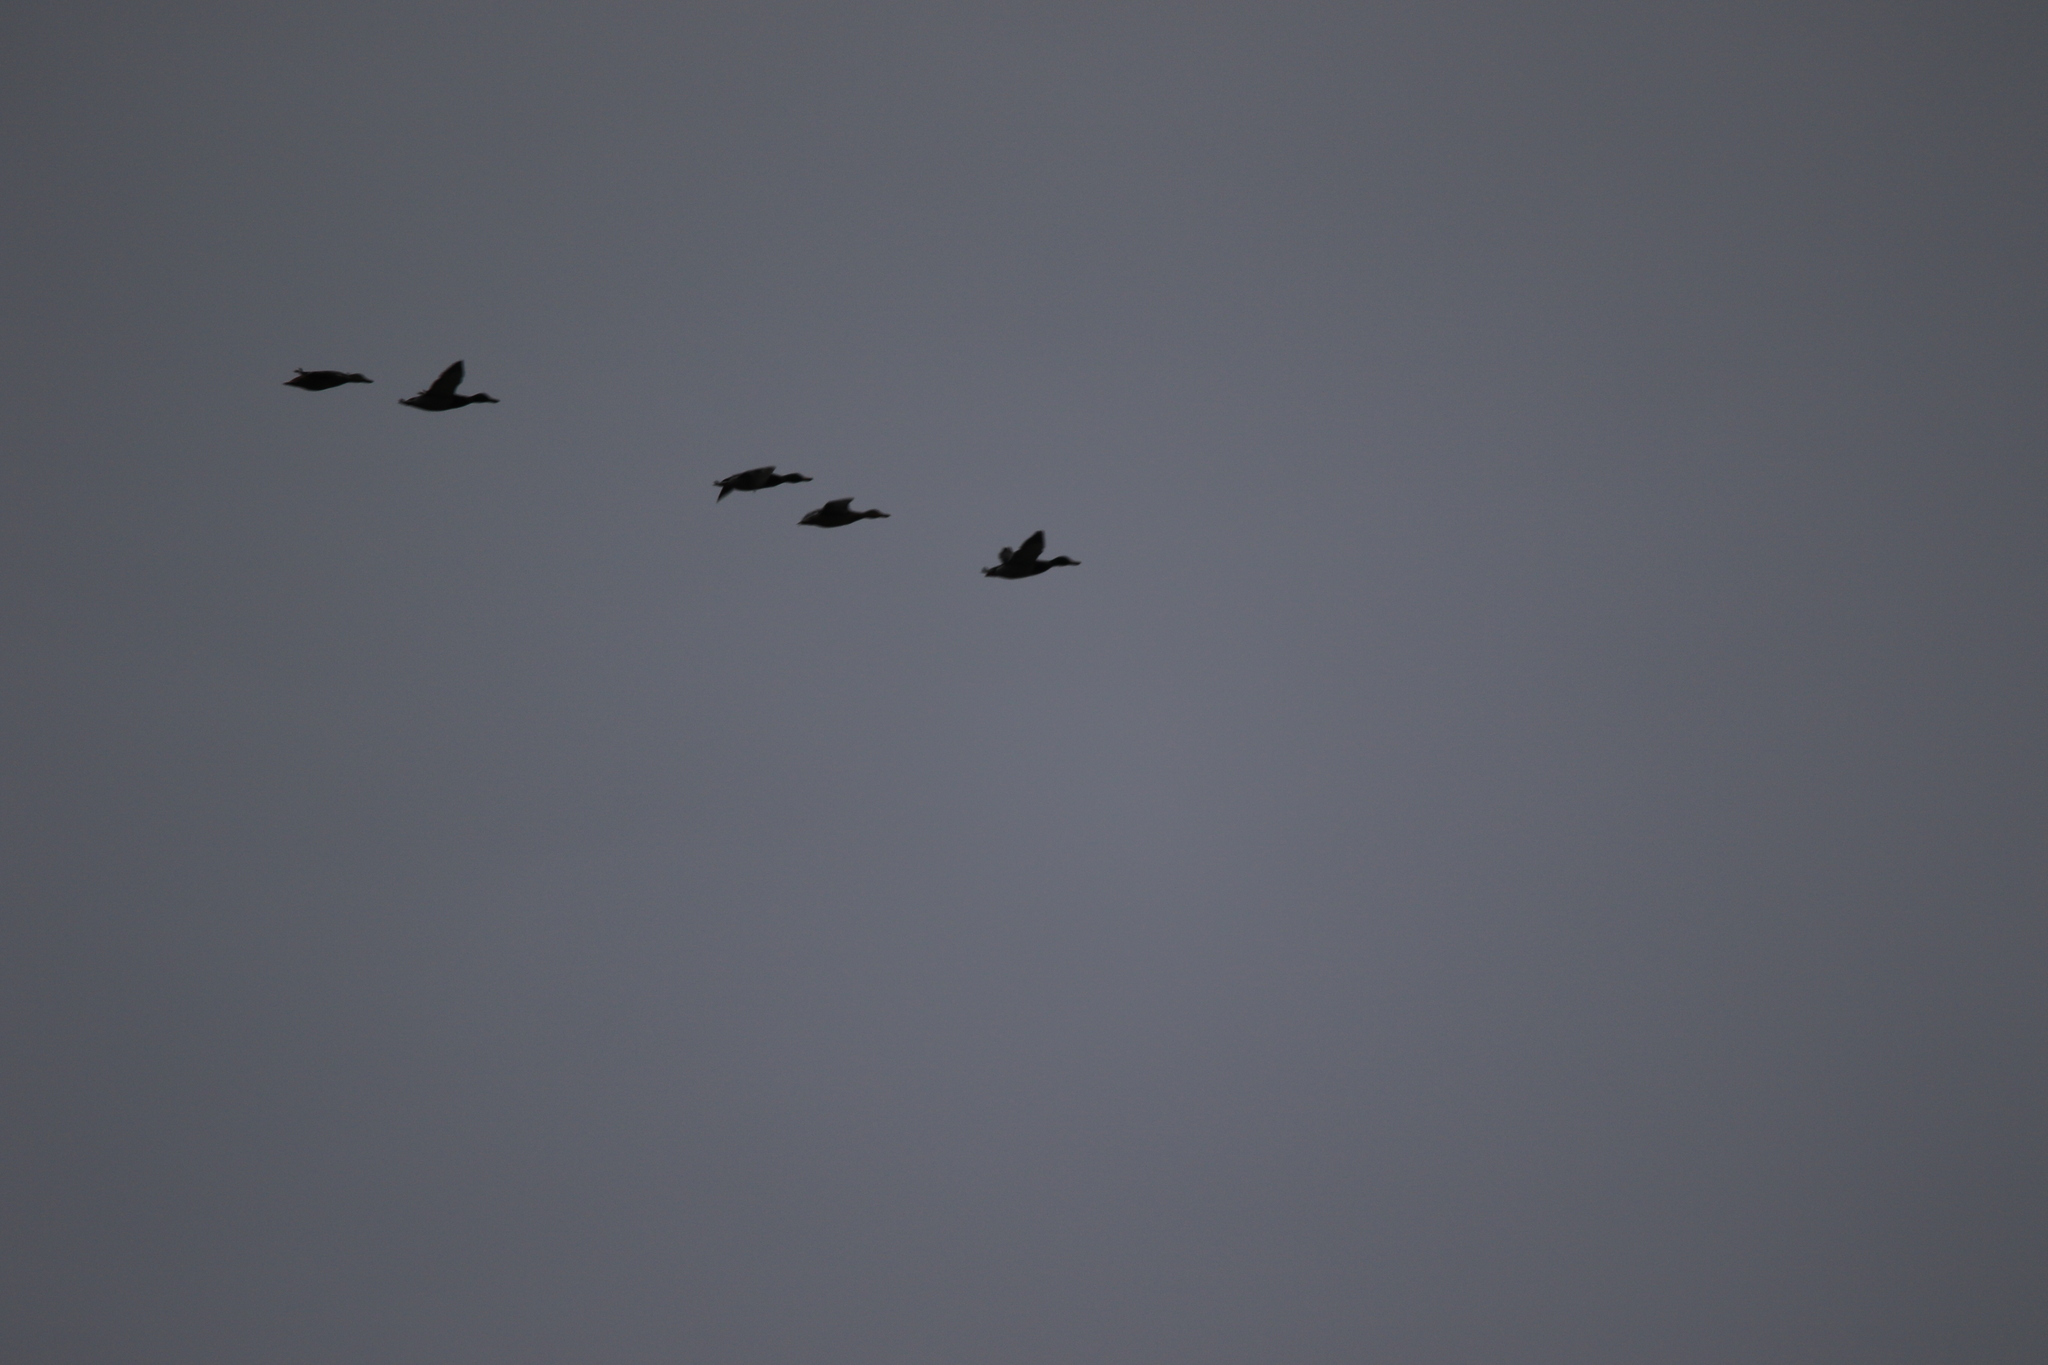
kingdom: Animalia
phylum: Chordata
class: Aves
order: Anseriformes
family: Anatidae
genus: Anas
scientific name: Anas platyrhynchos
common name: Mallard
